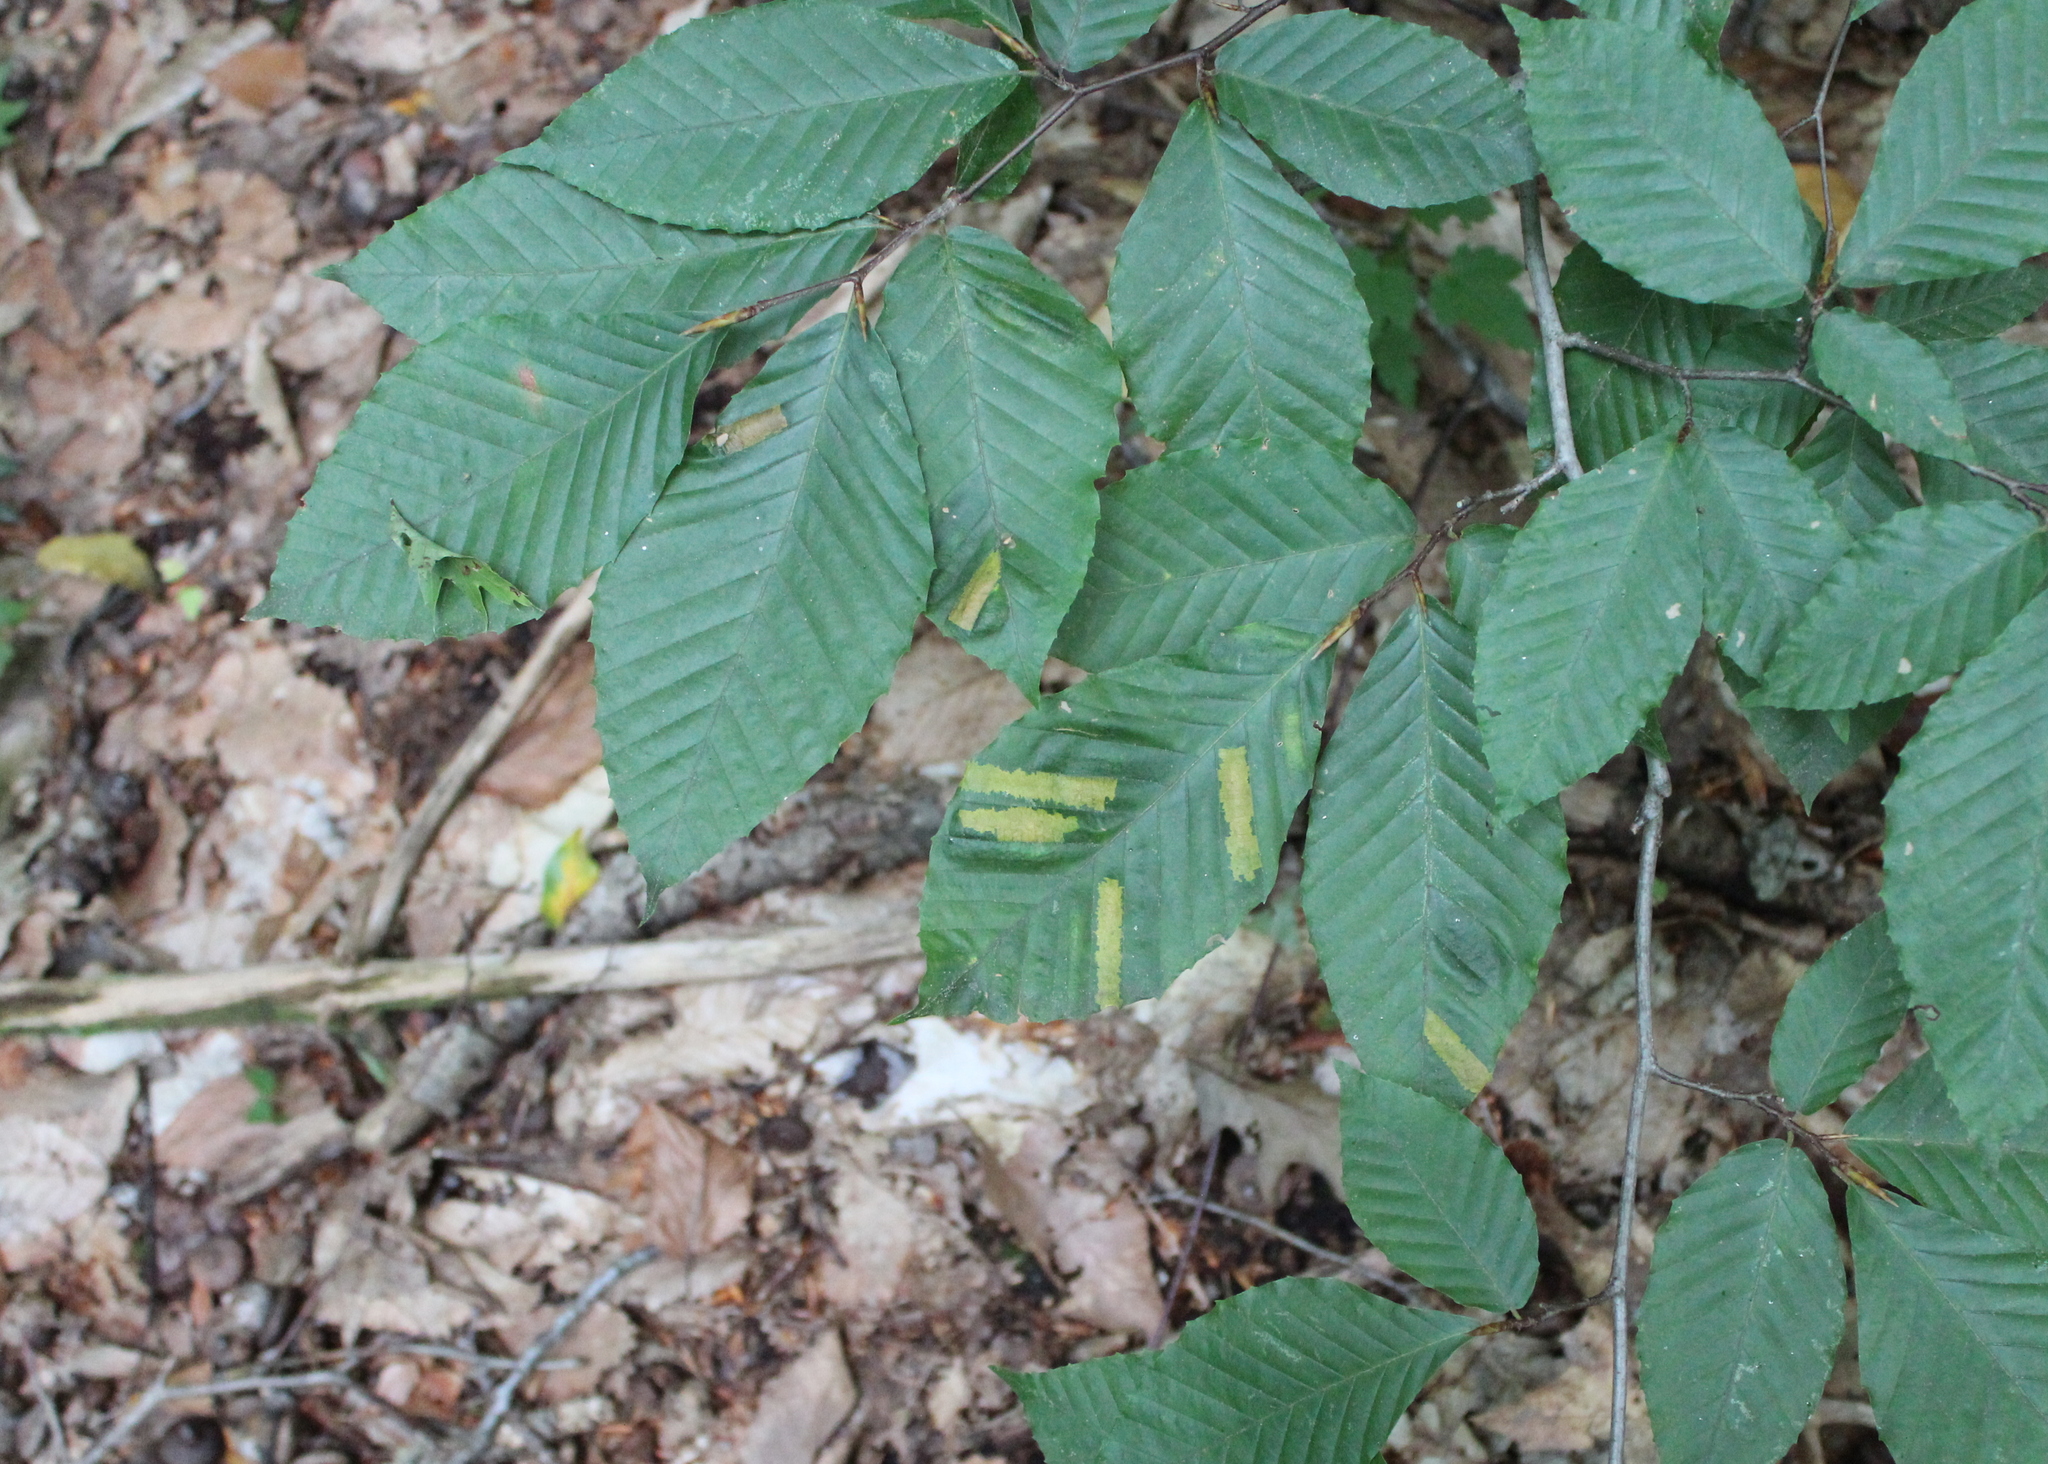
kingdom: Plantae
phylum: Tracheophyta
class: Magnoliopsida
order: Fagales
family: Fagaceae
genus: Fagus
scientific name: Fagus grandifolia
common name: American beech
